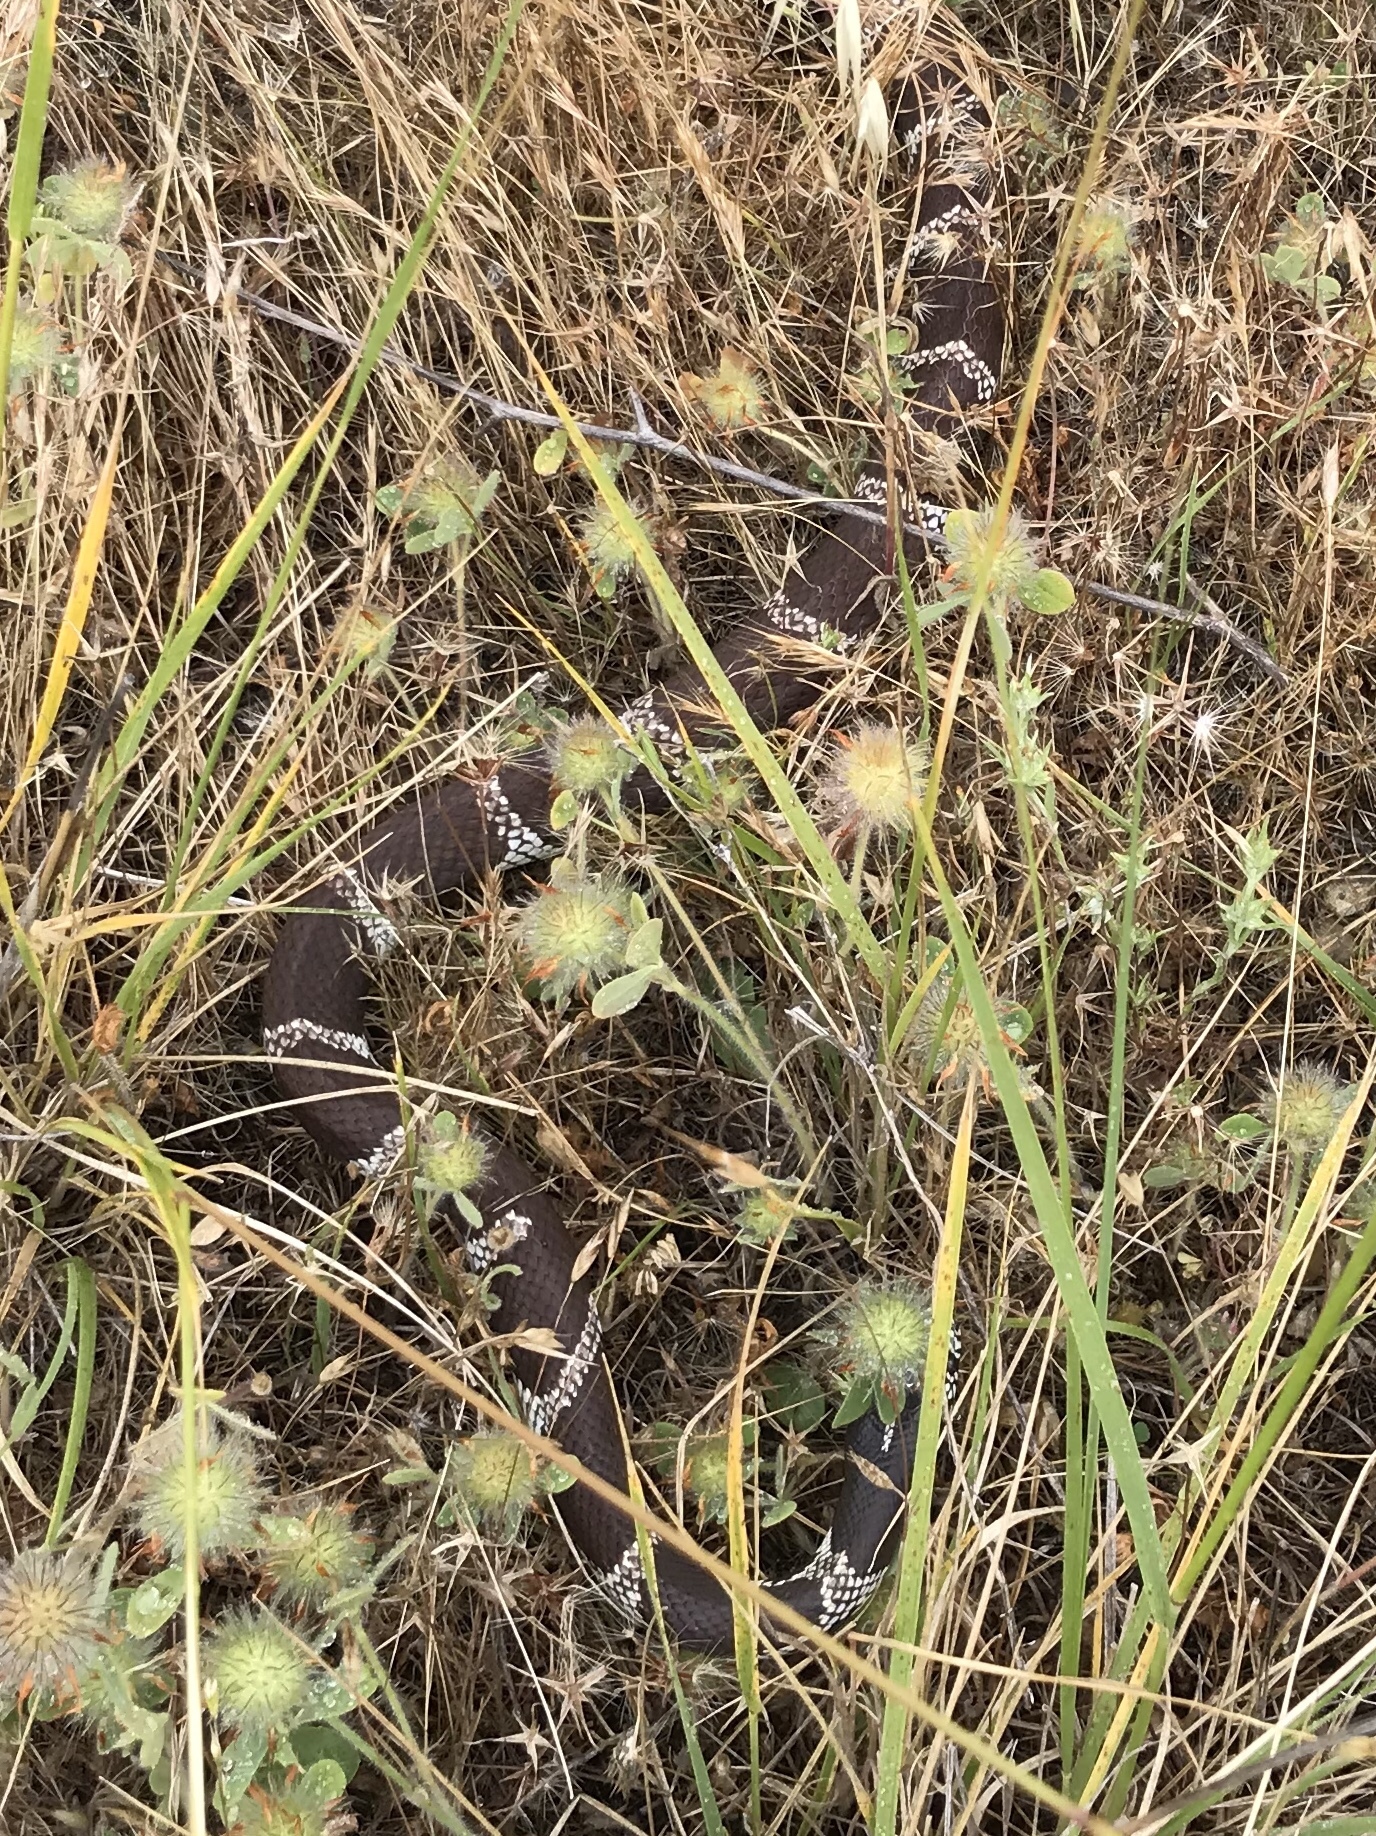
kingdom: Animalia
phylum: Chordata
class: Squamata
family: Colubridae
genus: Lampropeltis
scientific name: Lampropeltis californiae
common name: California kingsnake
